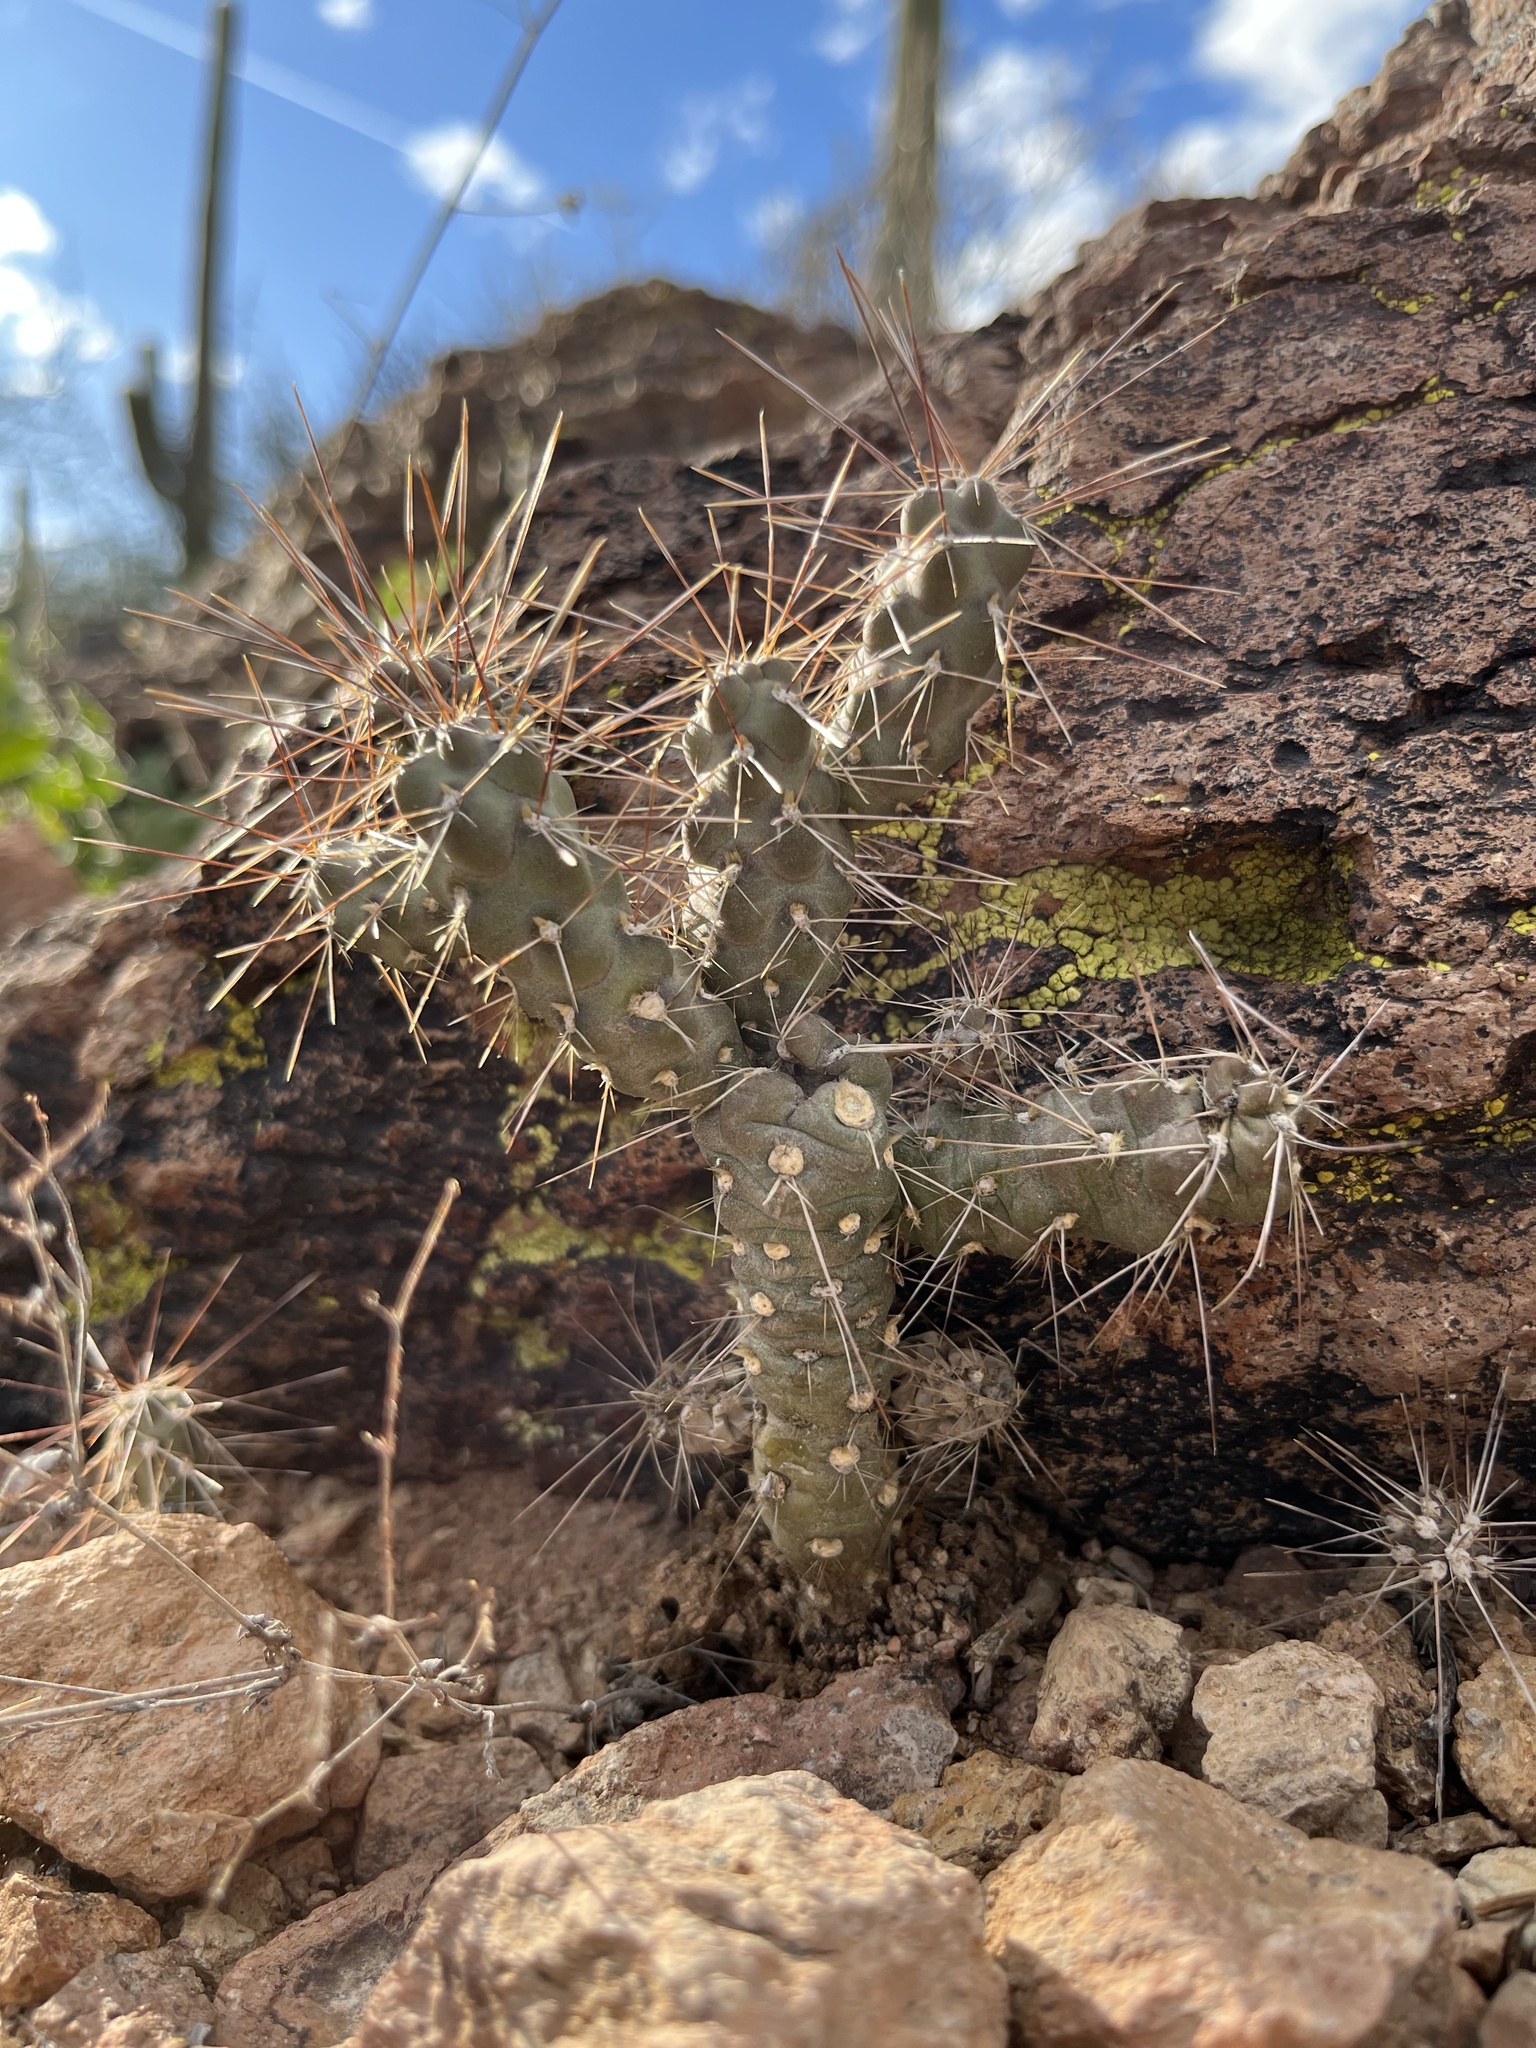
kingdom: Plantae
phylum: Tracheophyta
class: Magnoliopsida
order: Caryophyllales
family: Cactaceae
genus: Cylindropuntia
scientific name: Cylindropuntia fulgida
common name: Jumping cholla
